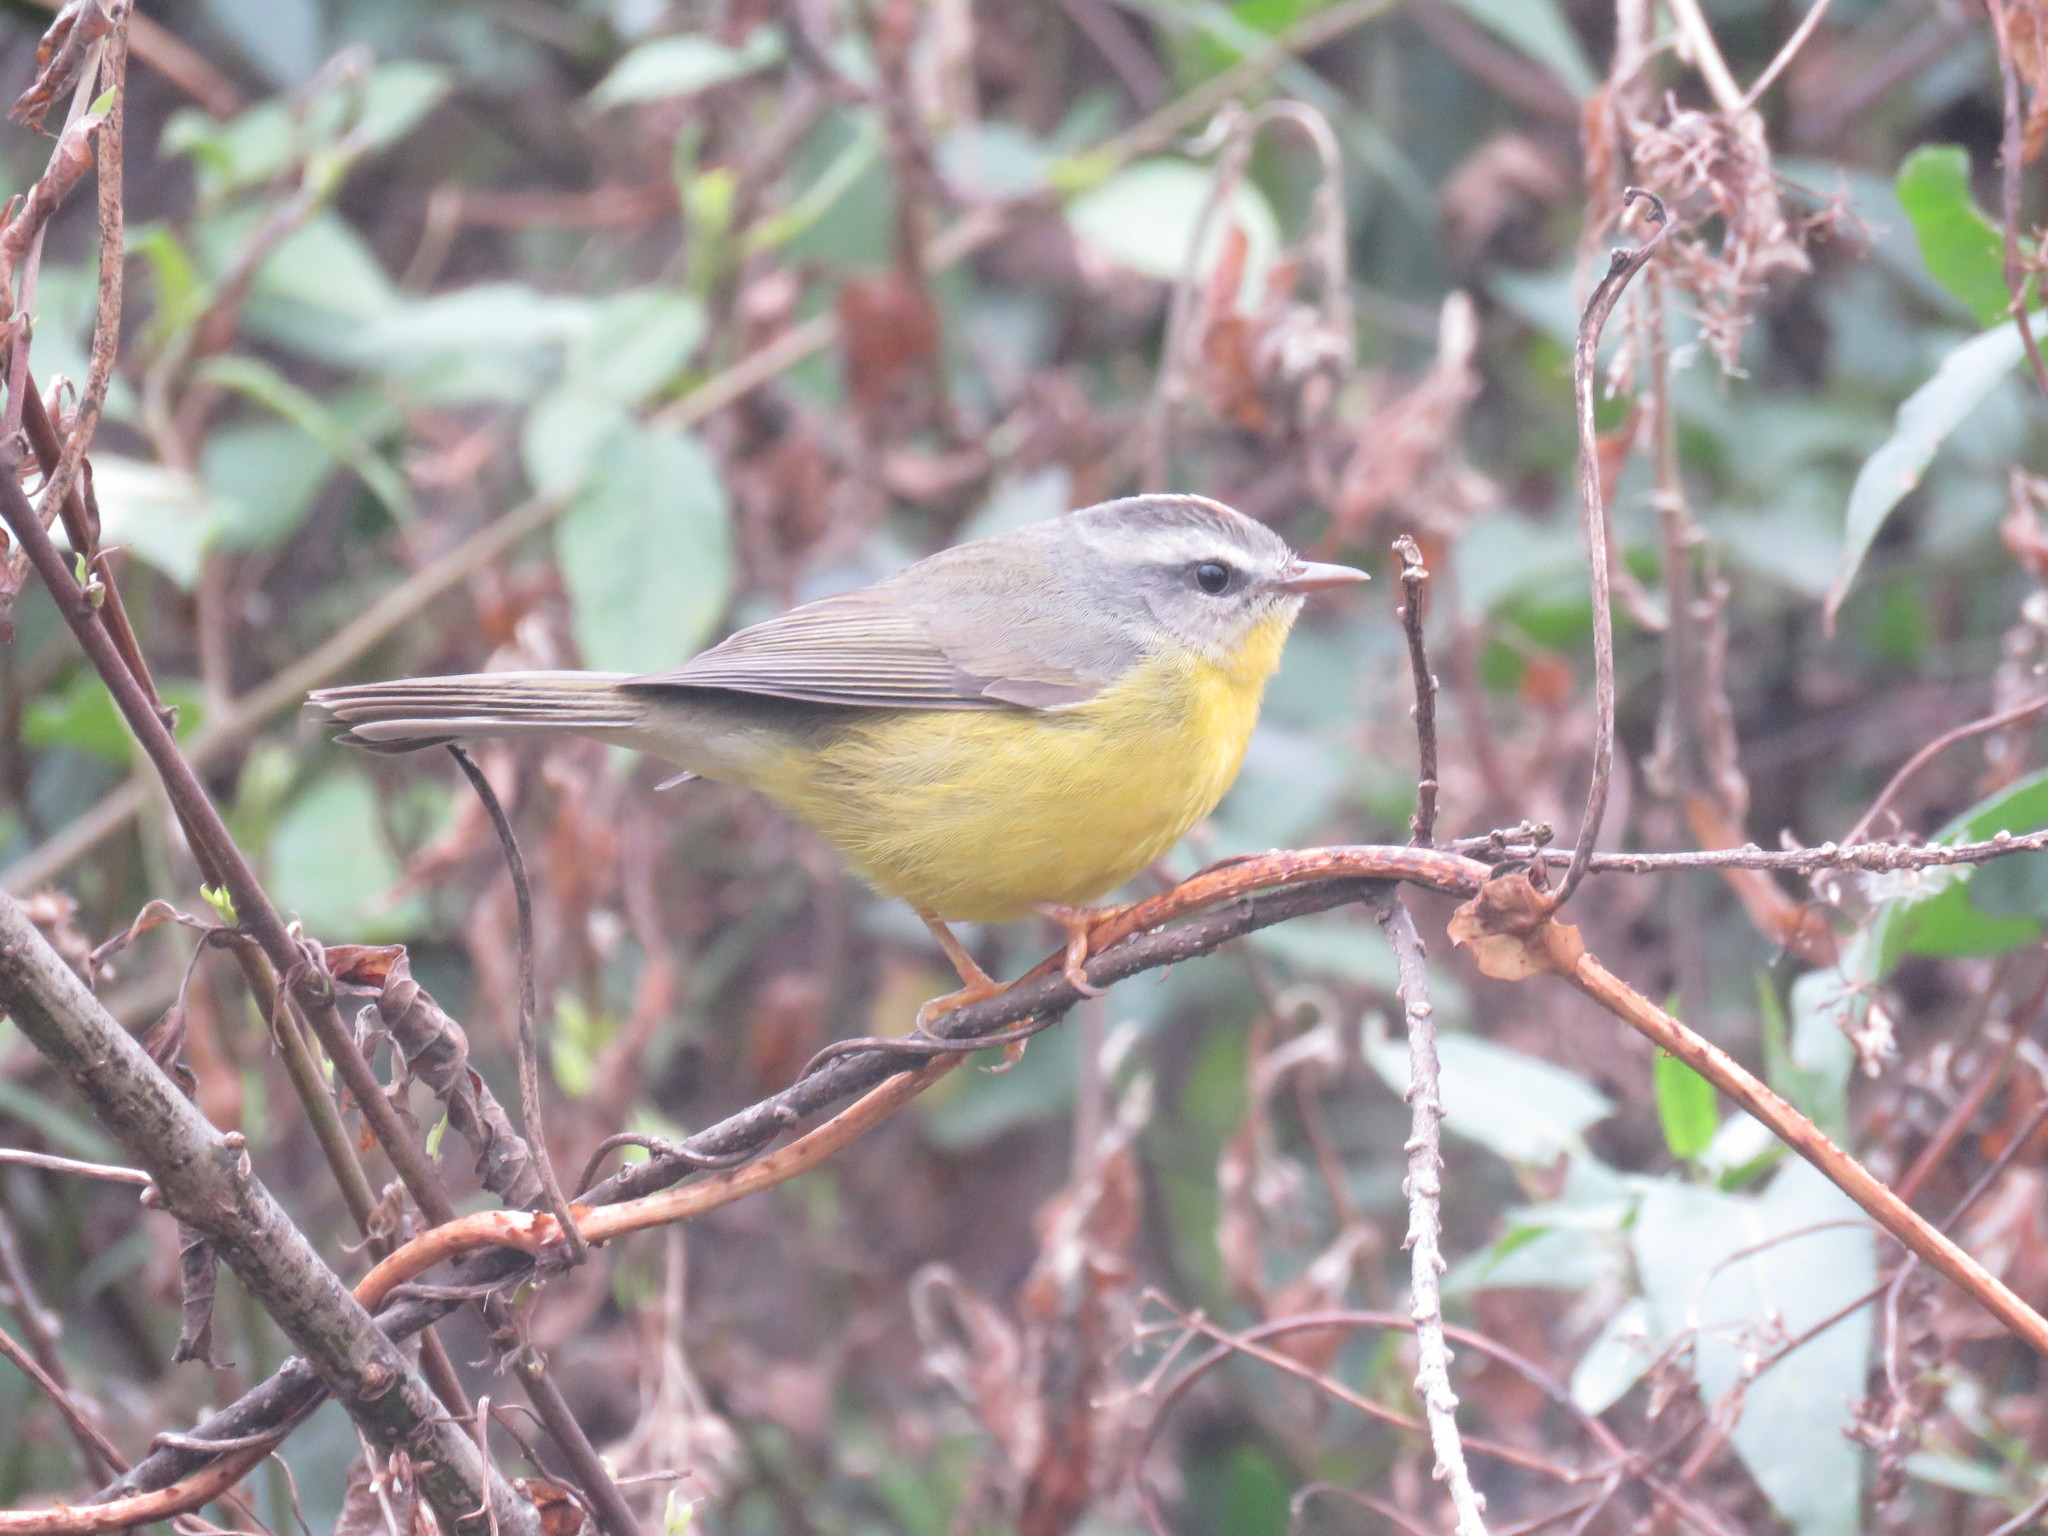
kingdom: Animalia
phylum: Chordata
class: Aves
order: Passeriformes
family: Parulidae
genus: Basileuterus
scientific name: Basileuterus culicivorus
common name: Golden-crowned warbler
